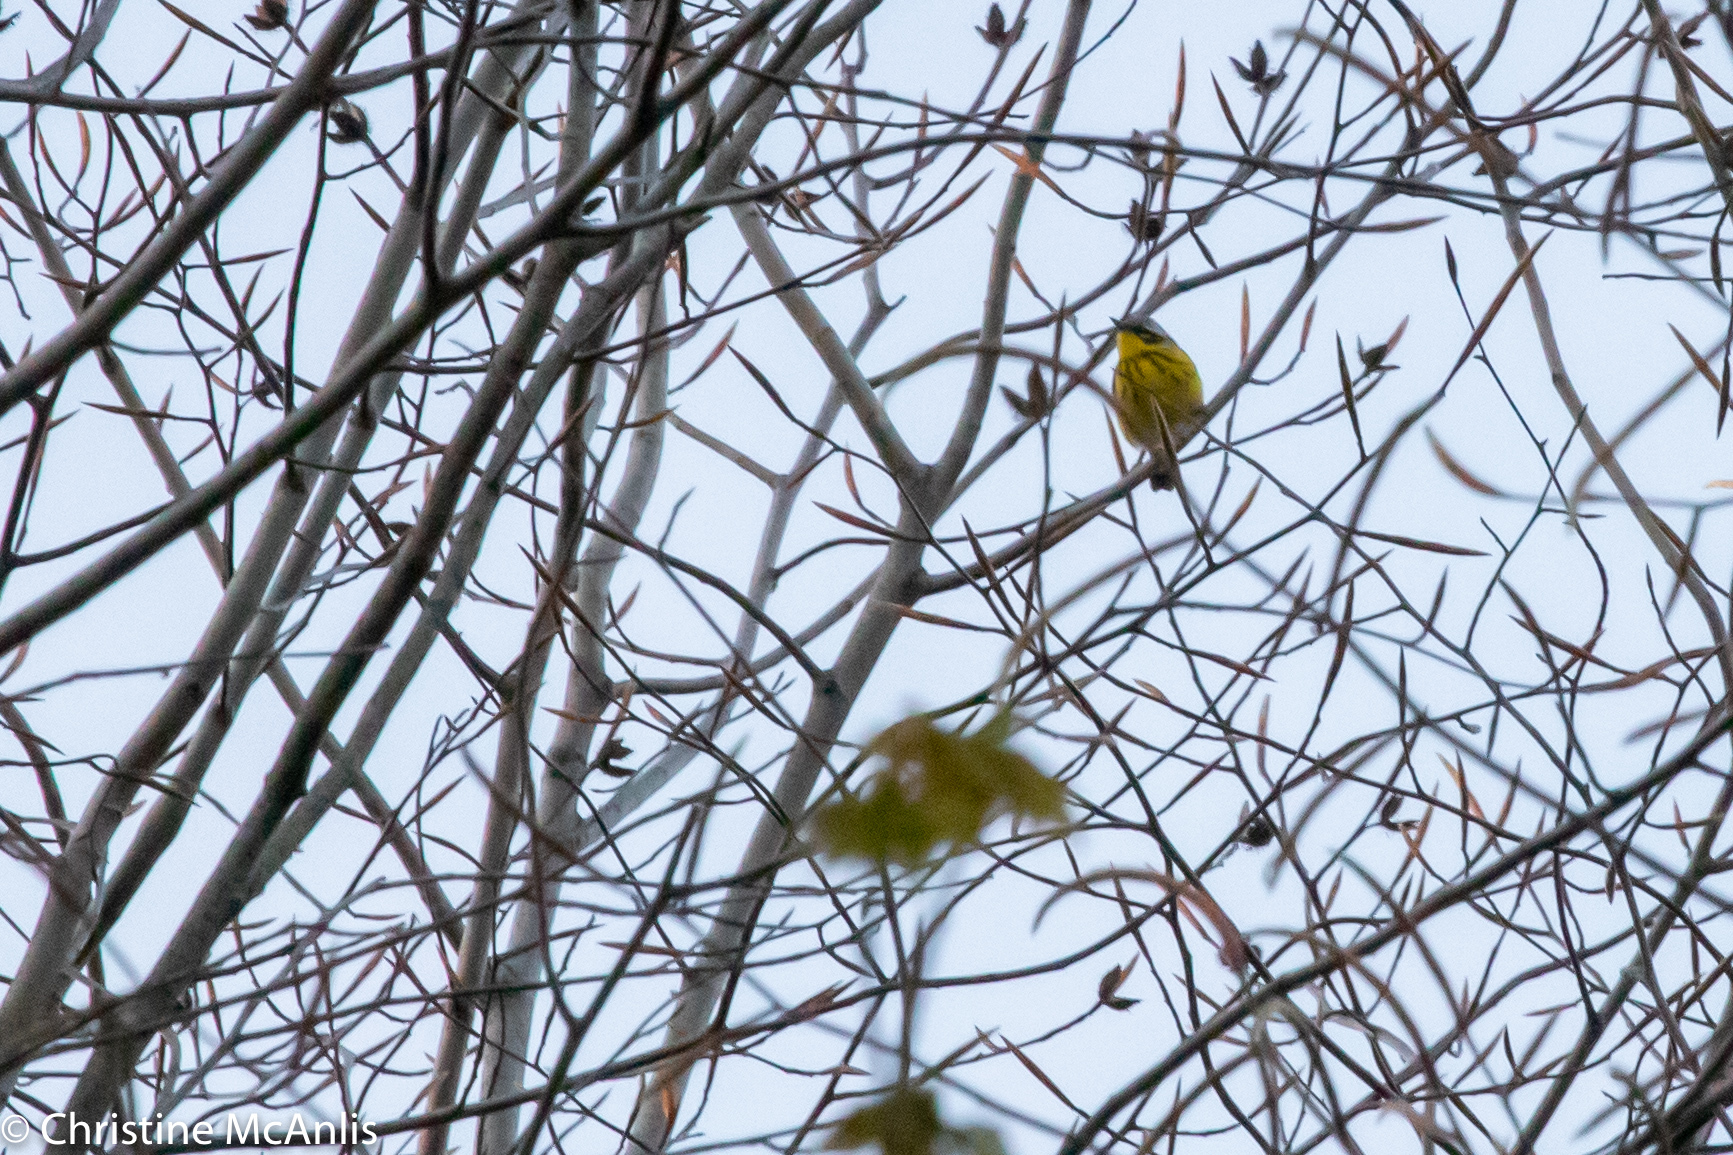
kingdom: Animalia
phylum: Chordata
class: Aves
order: Passeriformes
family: Parulidae
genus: Setophaga
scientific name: Setophaga magnolia
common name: Magnolia warbler
